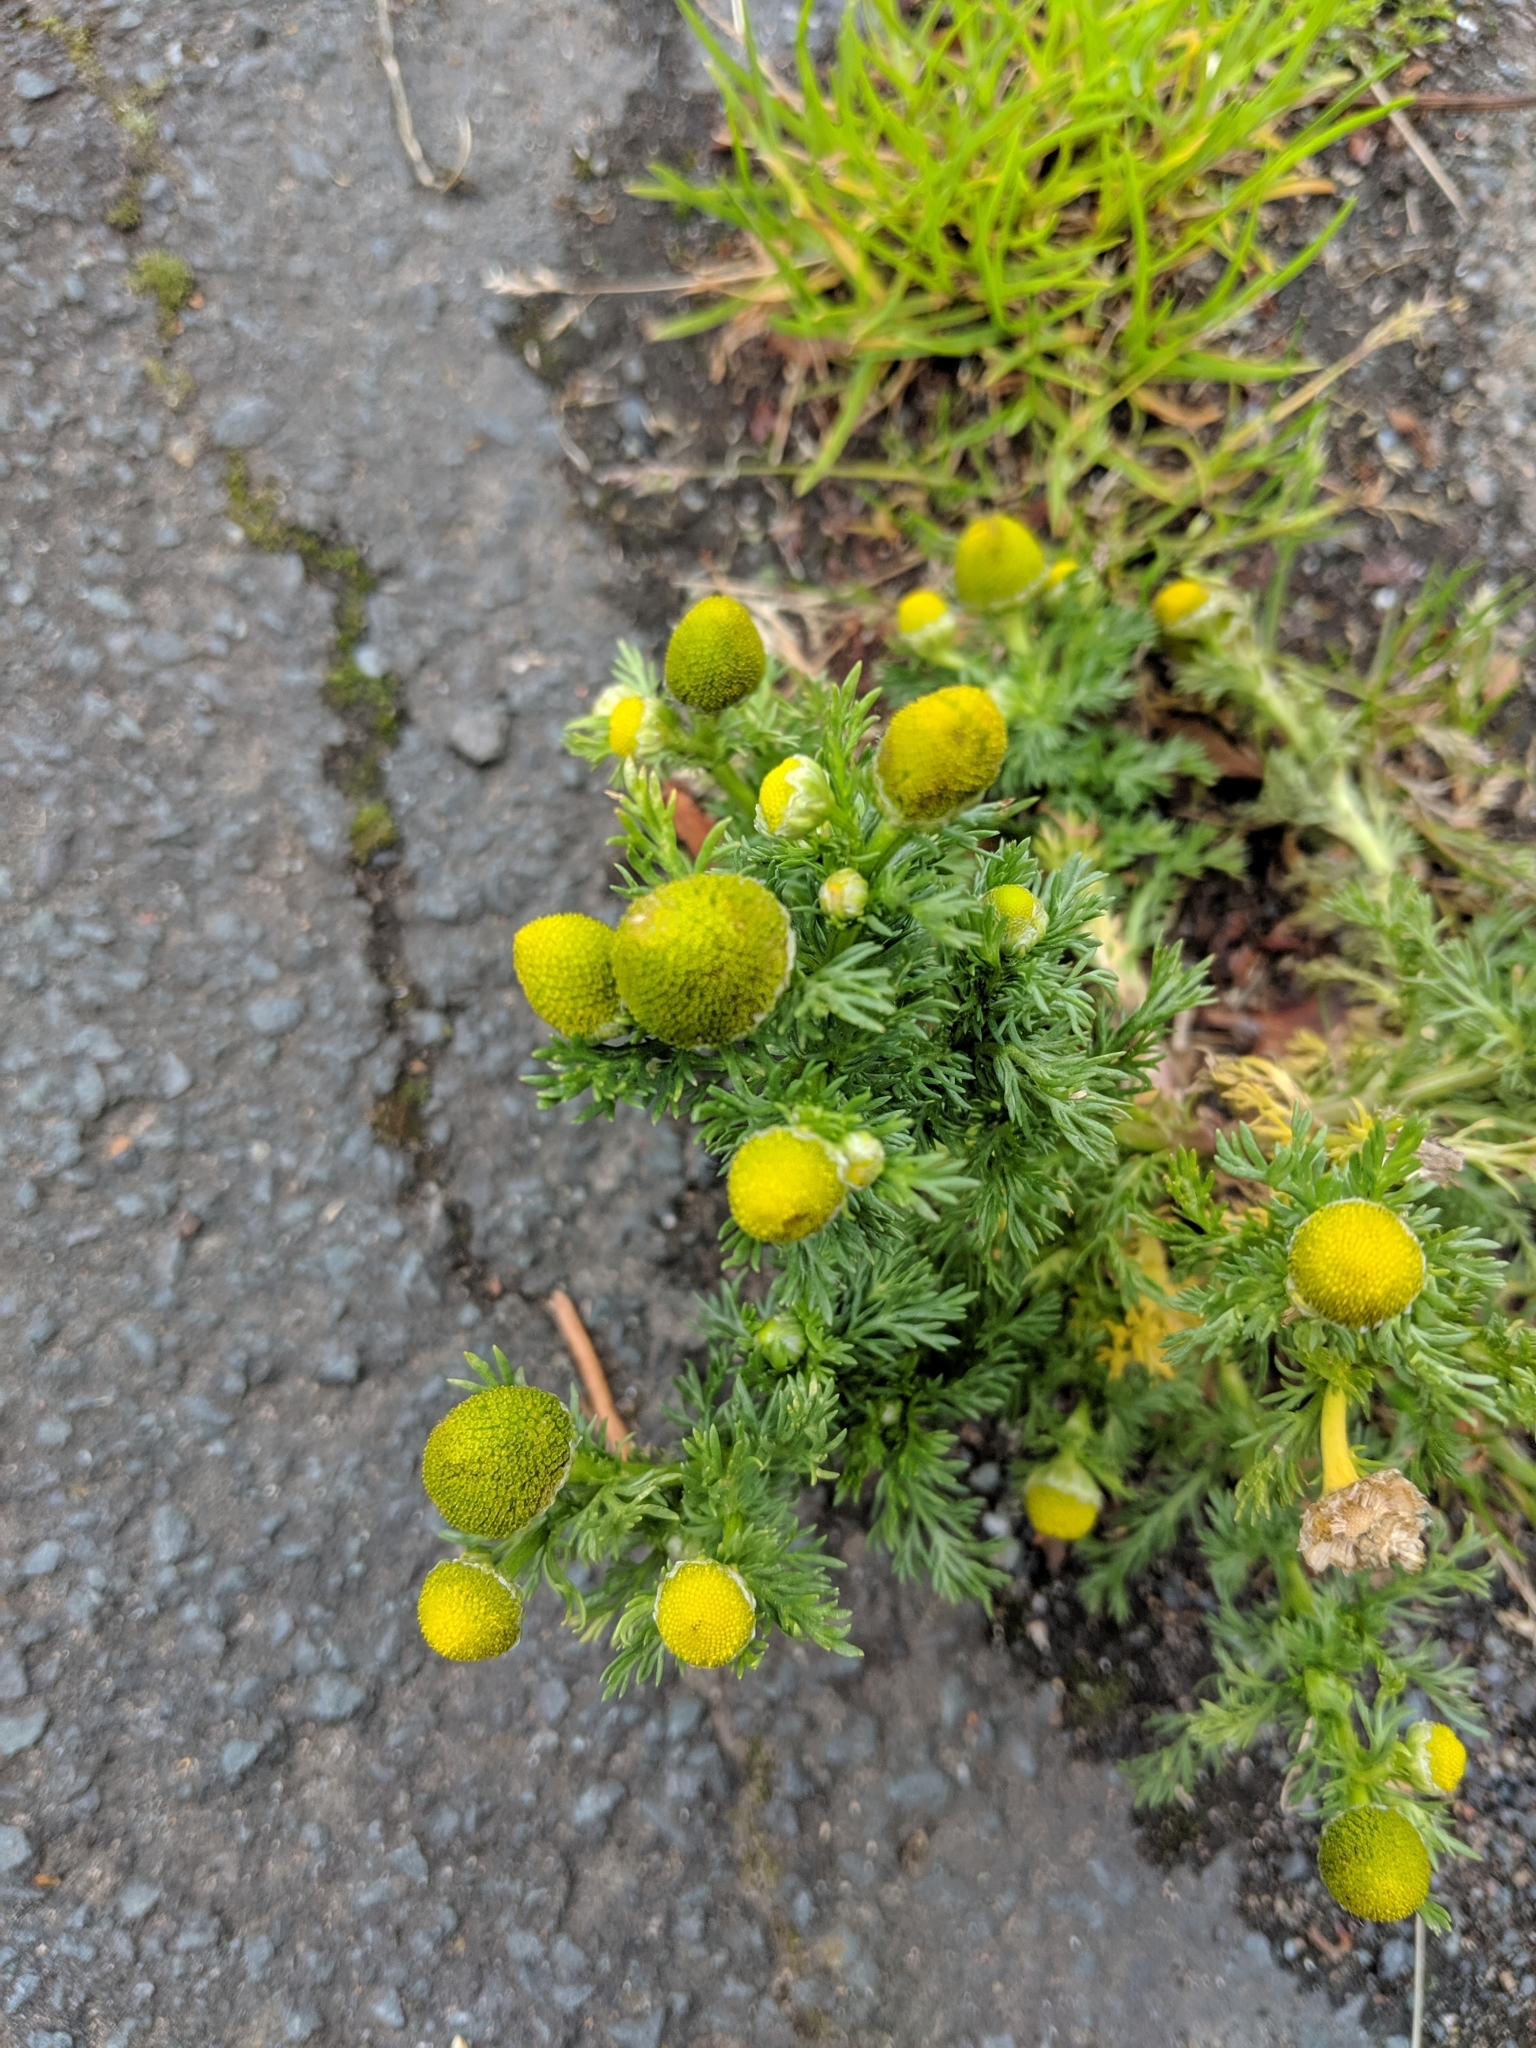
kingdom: Plantae
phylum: Tracheophyta
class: Magnoliopsida
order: Asterales
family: Asteraceae
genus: Matricaria
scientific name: Matricaria discoidea
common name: Disc mayweed
